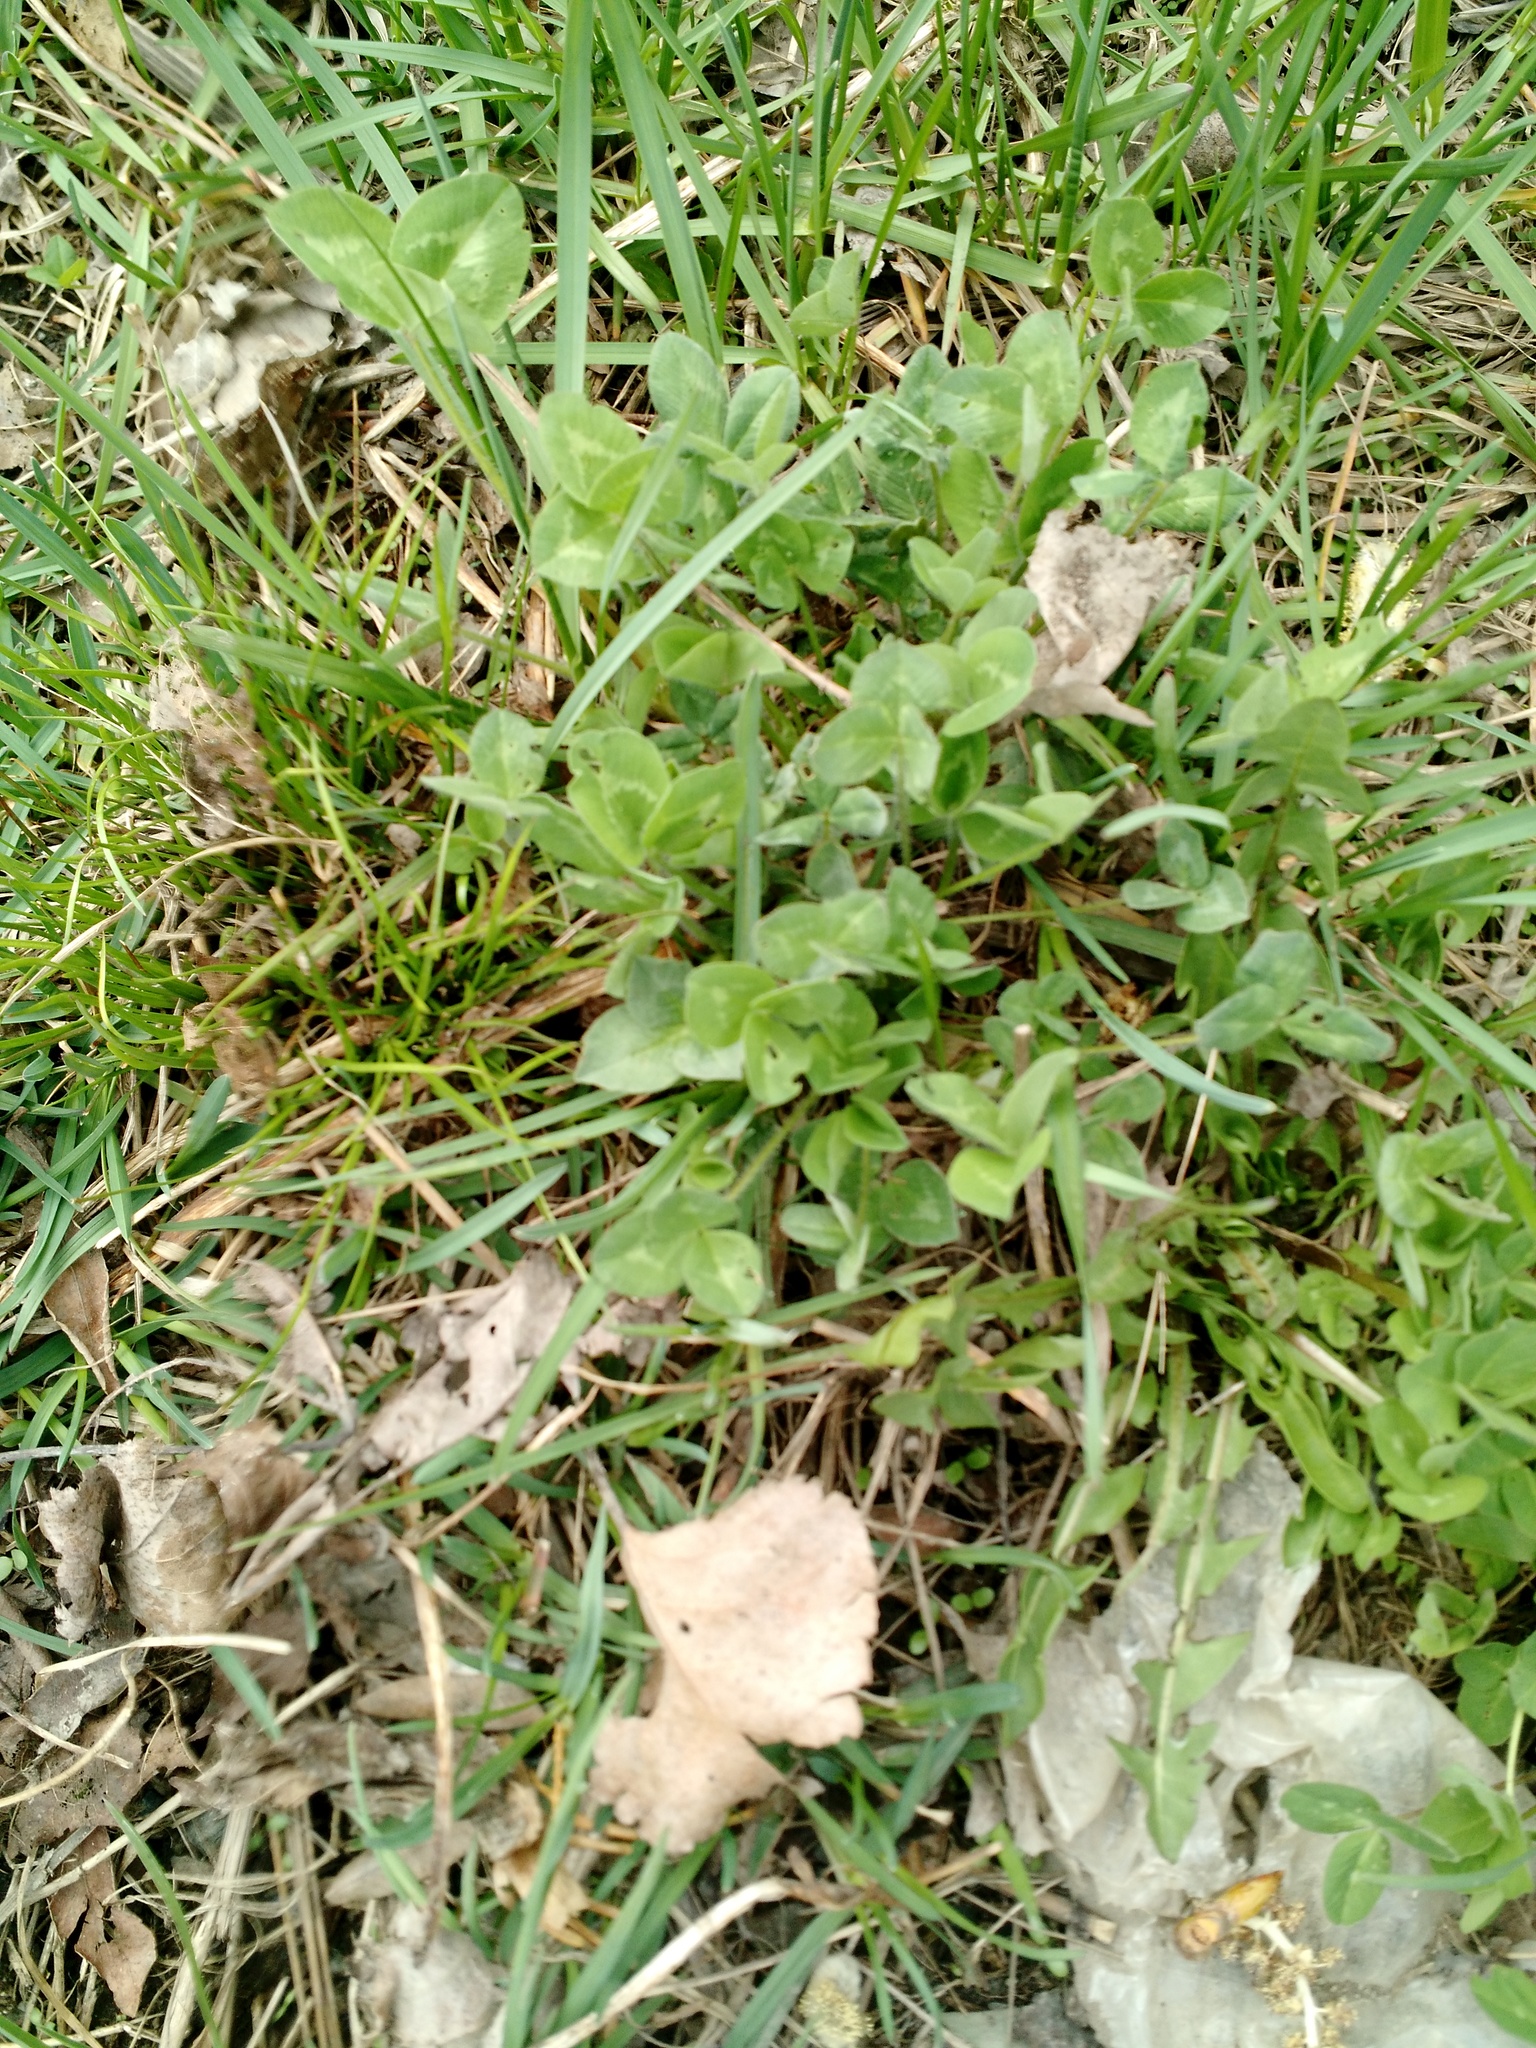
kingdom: Plantae
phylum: Tracheophyta
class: Magnoliopsida
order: Fabales
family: Fabaceae
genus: Trifolium
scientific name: Trifolium pratense
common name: Red clover
